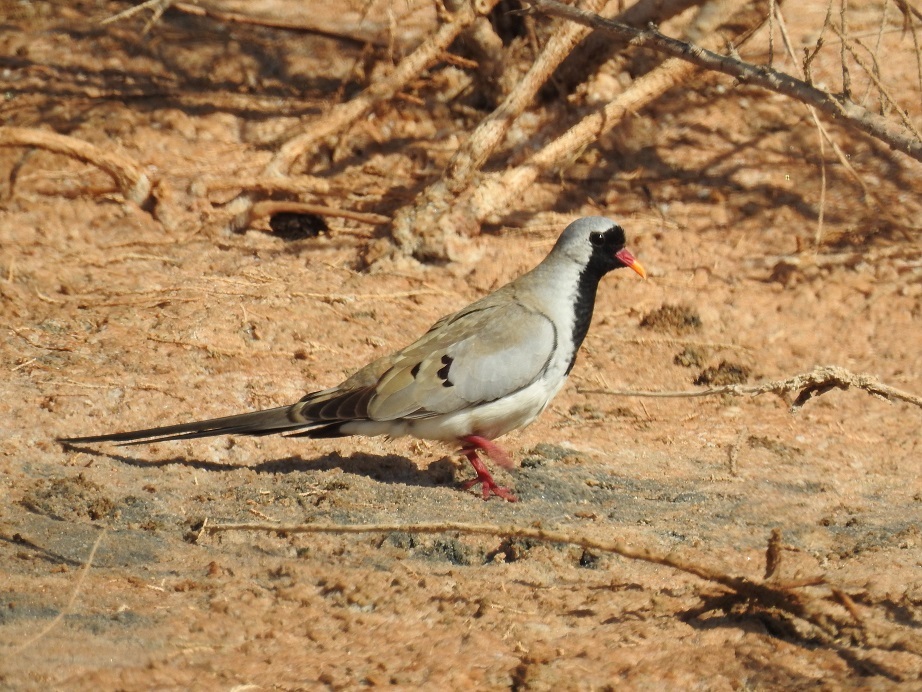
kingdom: Animalia
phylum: Chordata
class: Aves
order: Columbiformes
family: Columbidae
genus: Oena
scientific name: Oena capensis
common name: Namaqua dove
